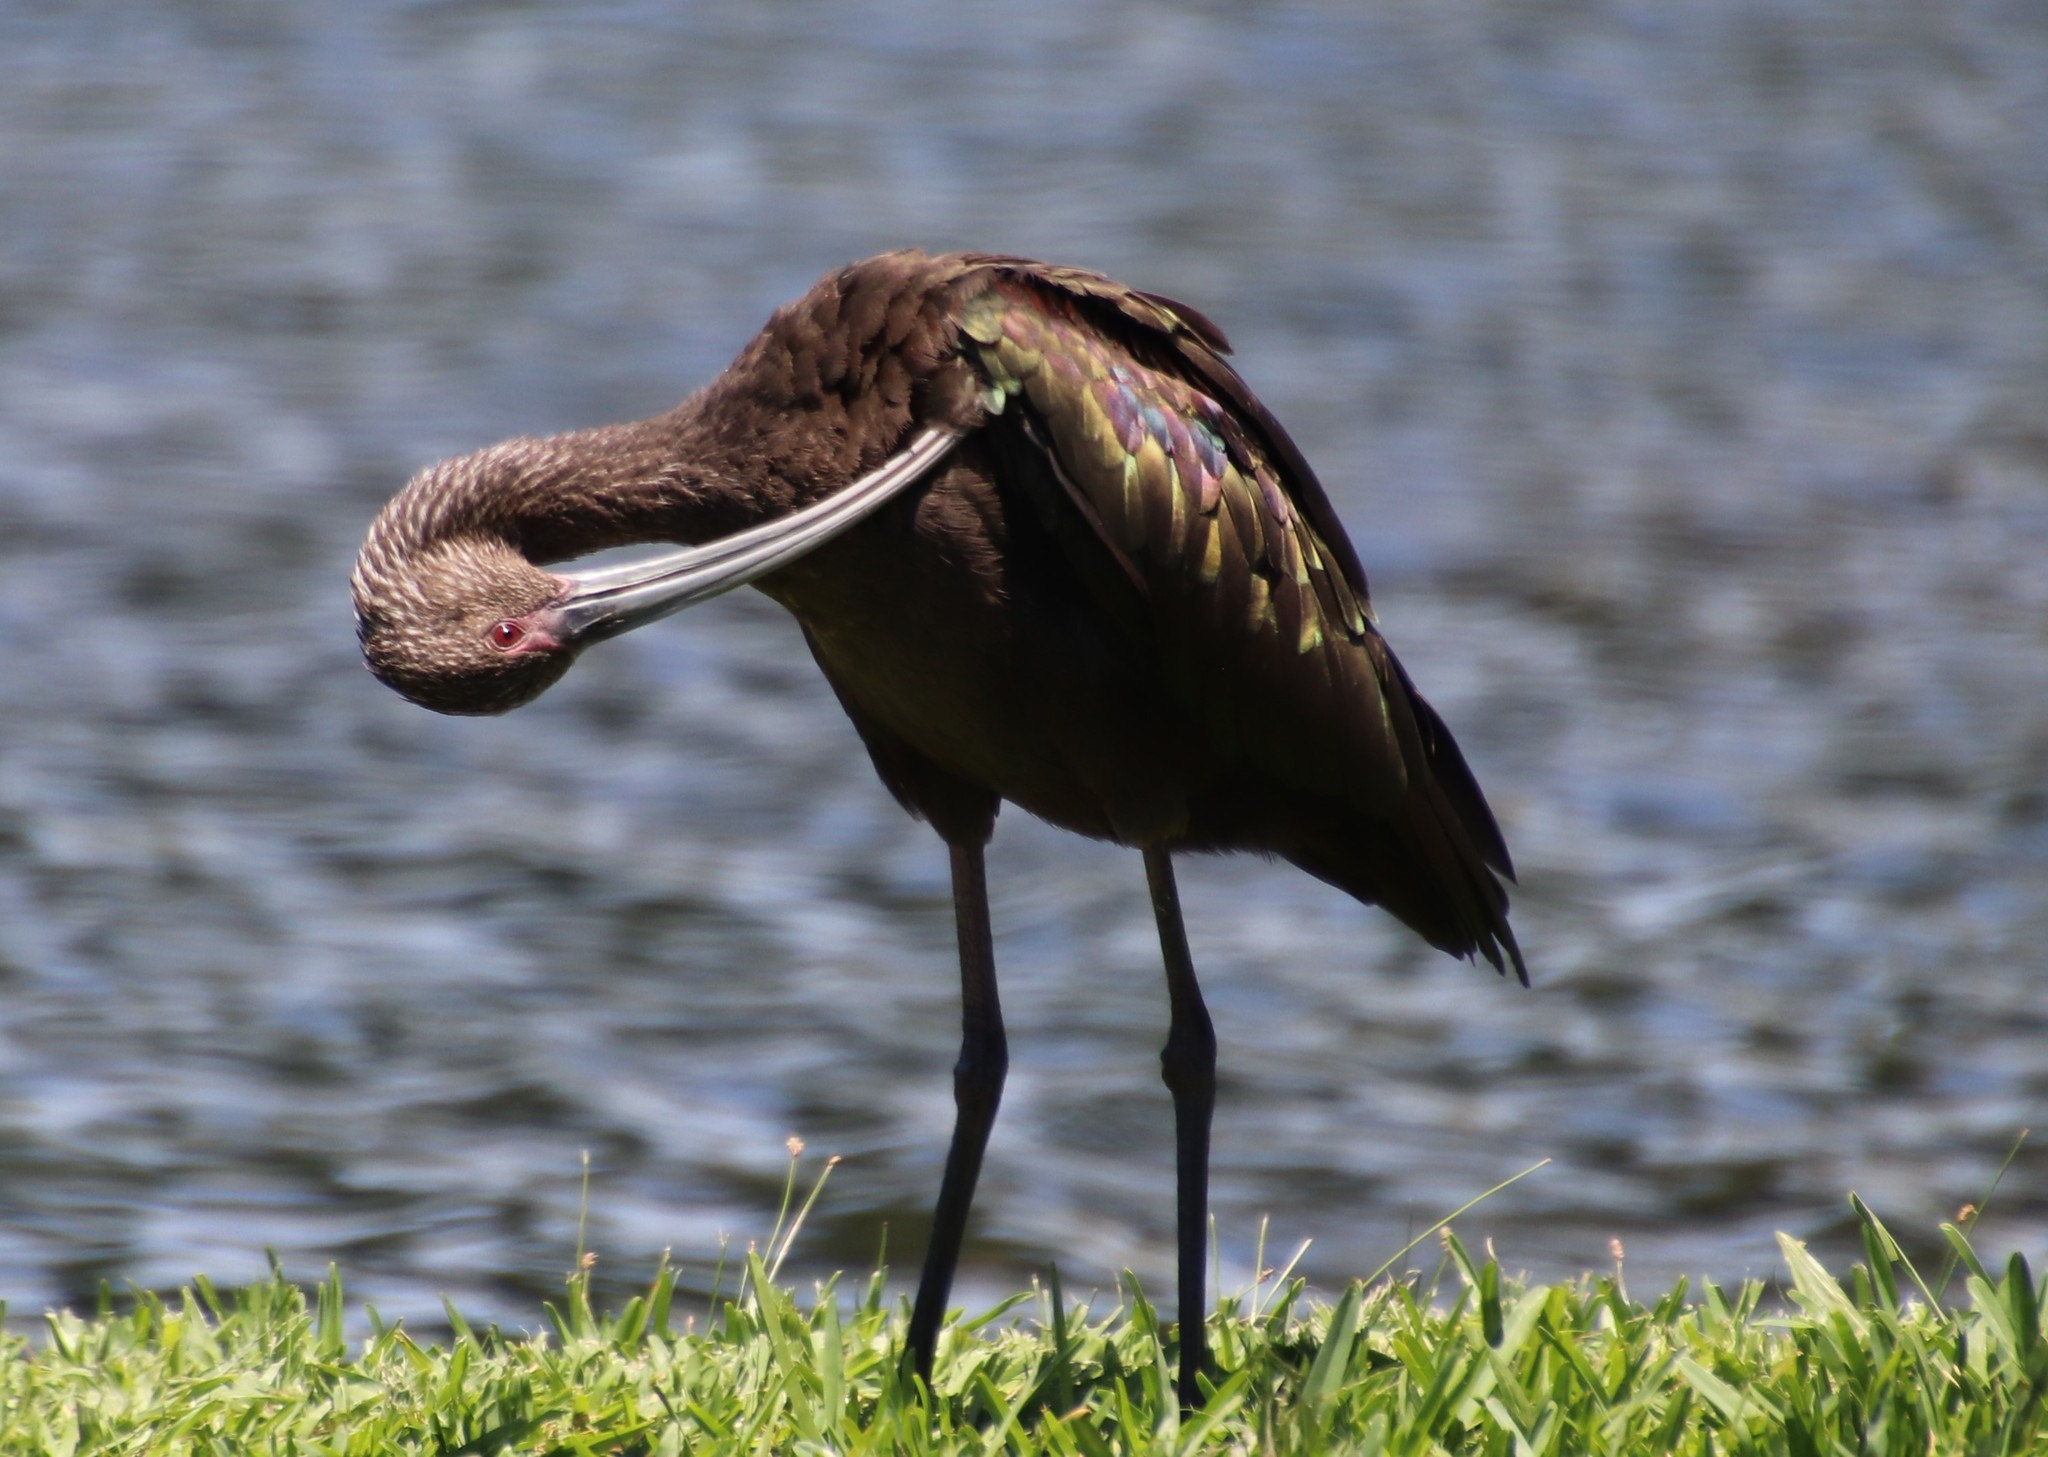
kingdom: Animalia
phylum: Chordata
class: Aves
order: Pelecaniformes
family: Threskiornithidae
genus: Plegadis
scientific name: Plegadis chihi
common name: White-faced ibis
